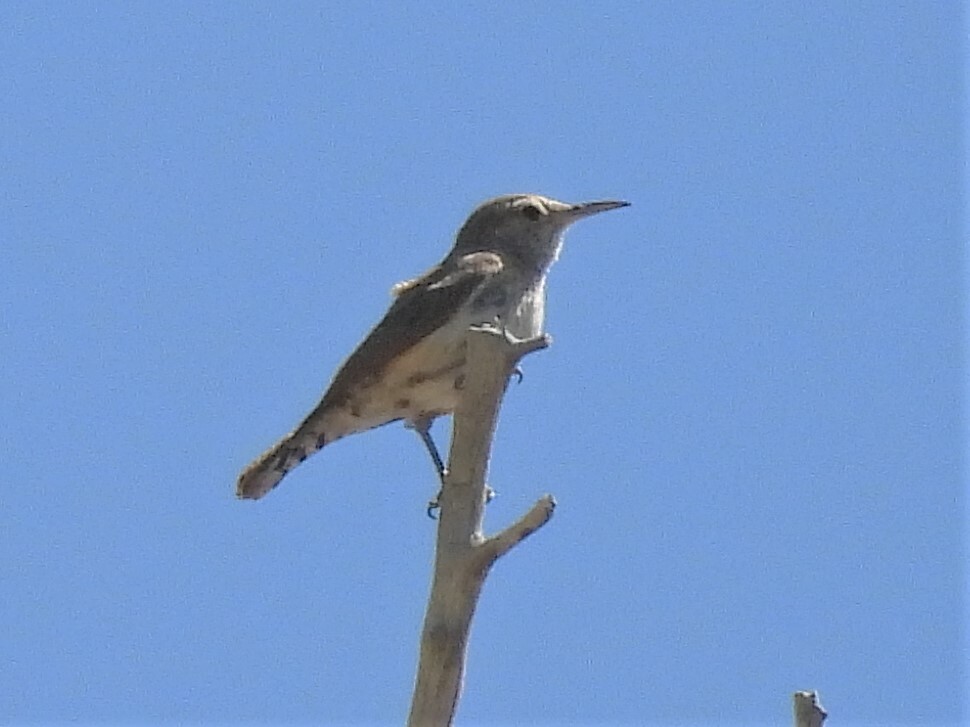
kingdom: Animalia
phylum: Chordata
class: Aves
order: Passeriformes
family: Troglodytidae
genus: Salpinctes
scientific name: Salpinctes obsoletus
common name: Rock wren
